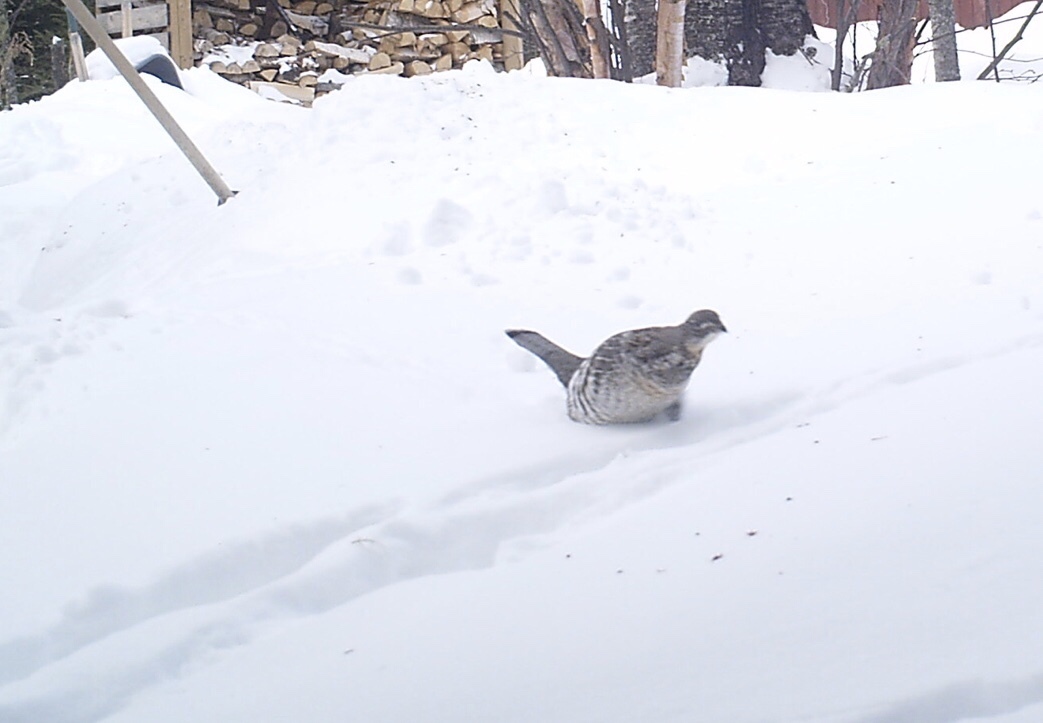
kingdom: Animalia
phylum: Chordata
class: Aves
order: Galliformes
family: Phasianidae
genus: Bonasa
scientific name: Bonasa umbellus
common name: Ruffed grouse
